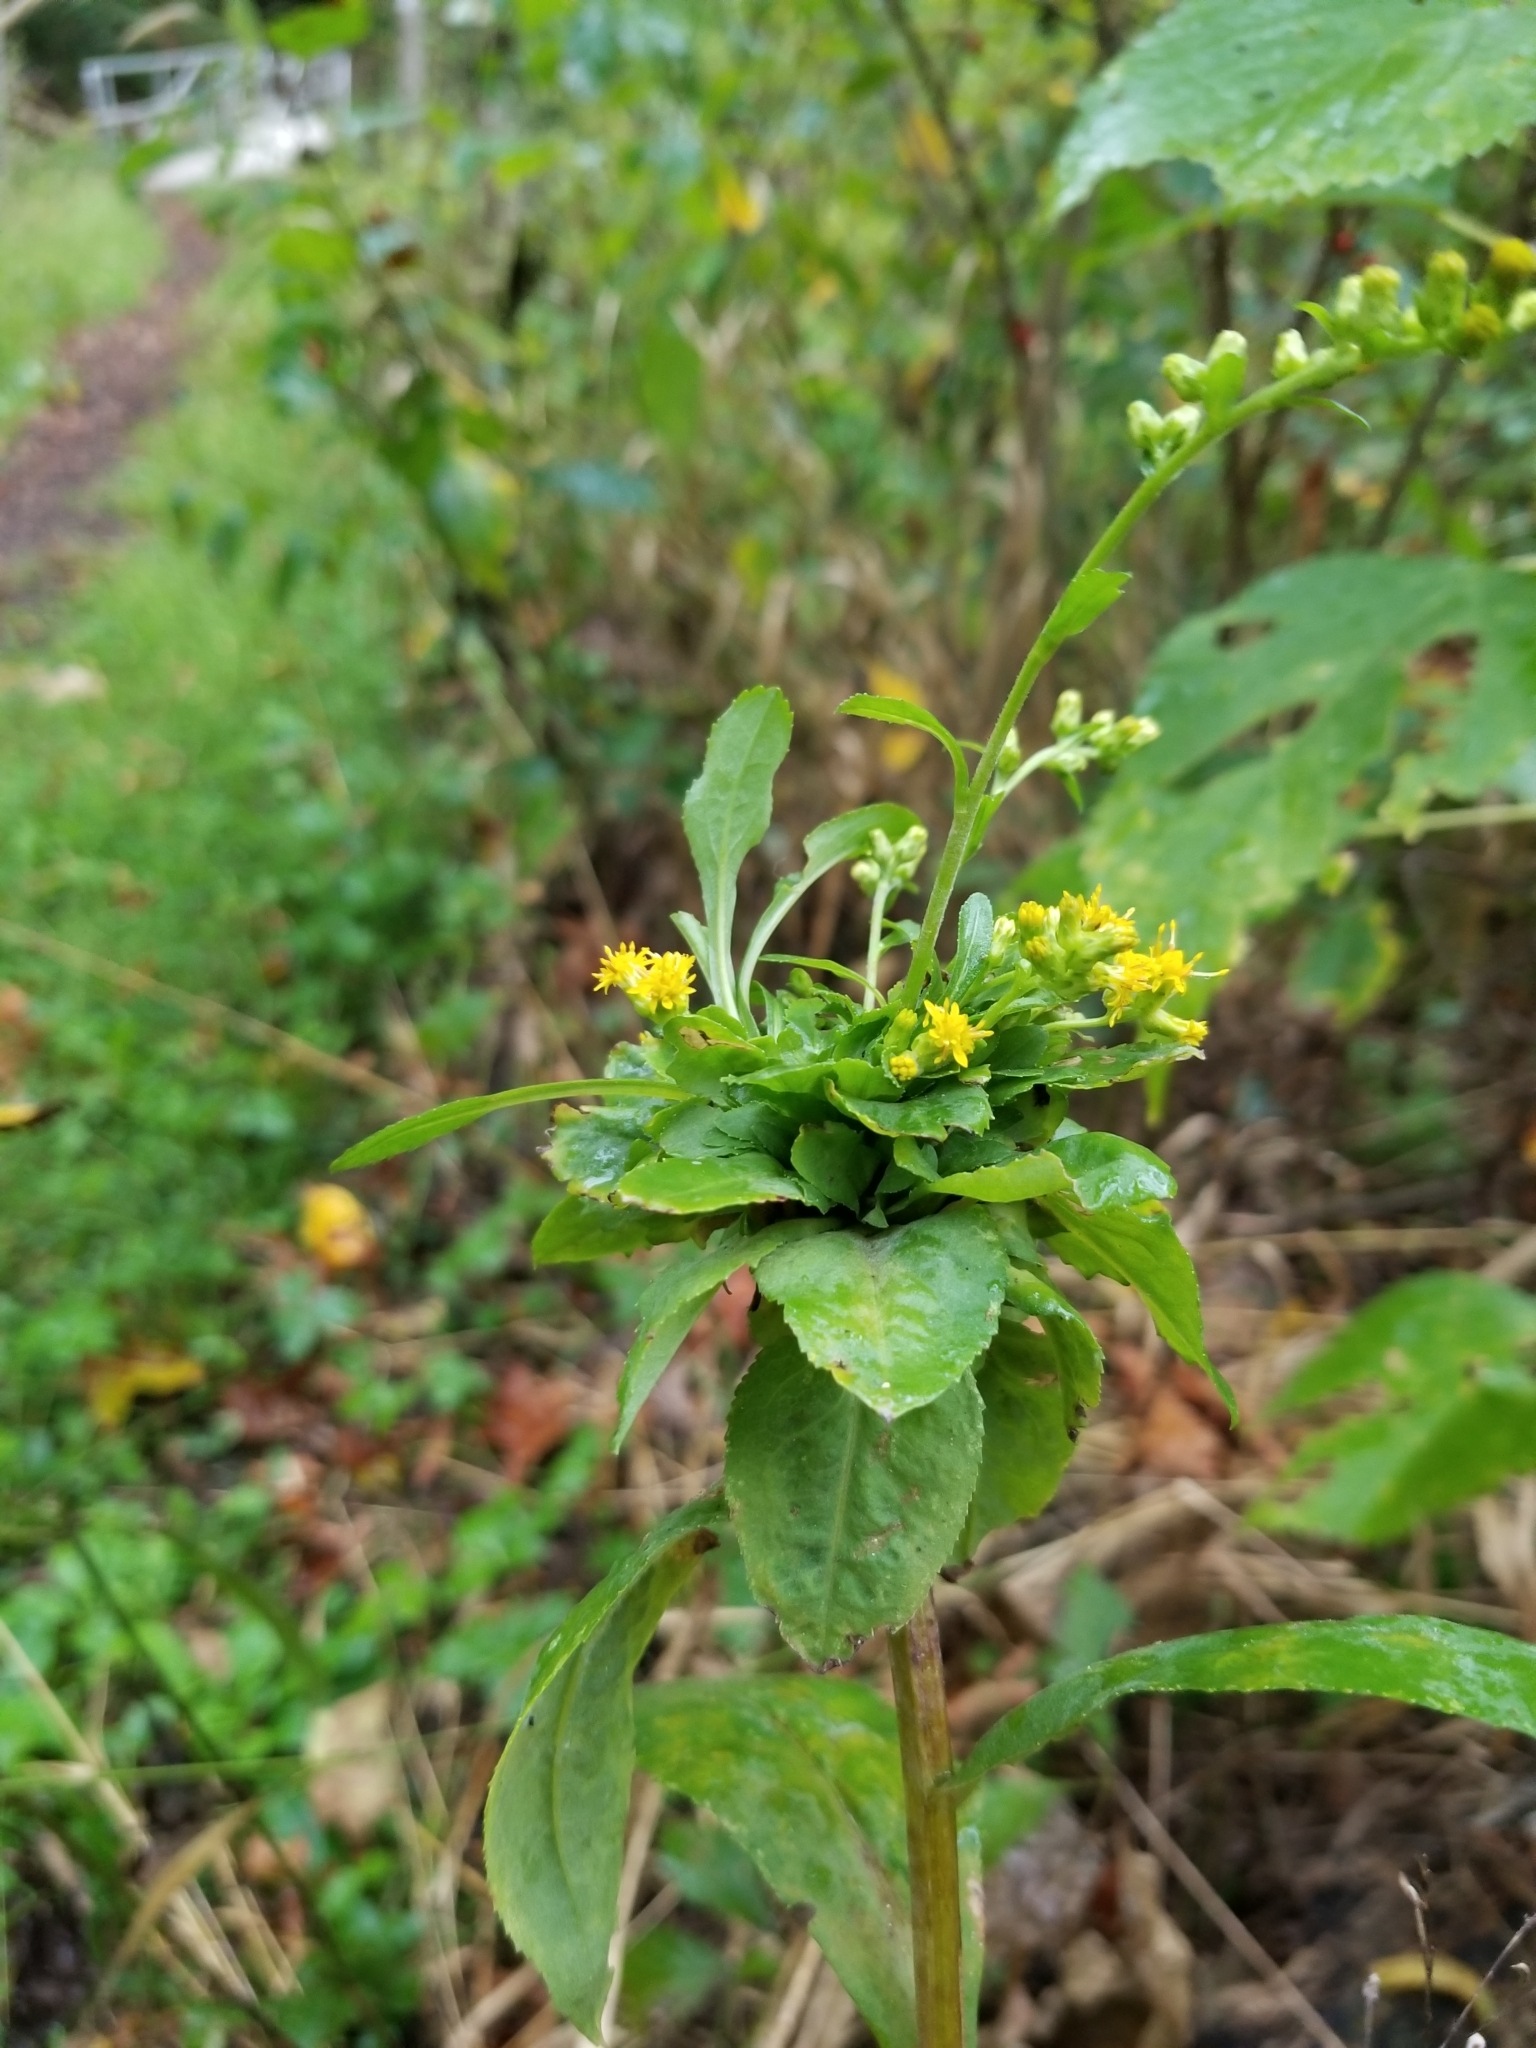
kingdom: Plantae
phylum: Tracheophyta
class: Magnoliopsida
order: Asterales
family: Asteraceae
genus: Solidago
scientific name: Solidago patula
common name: Rough-leaf goldenrod
